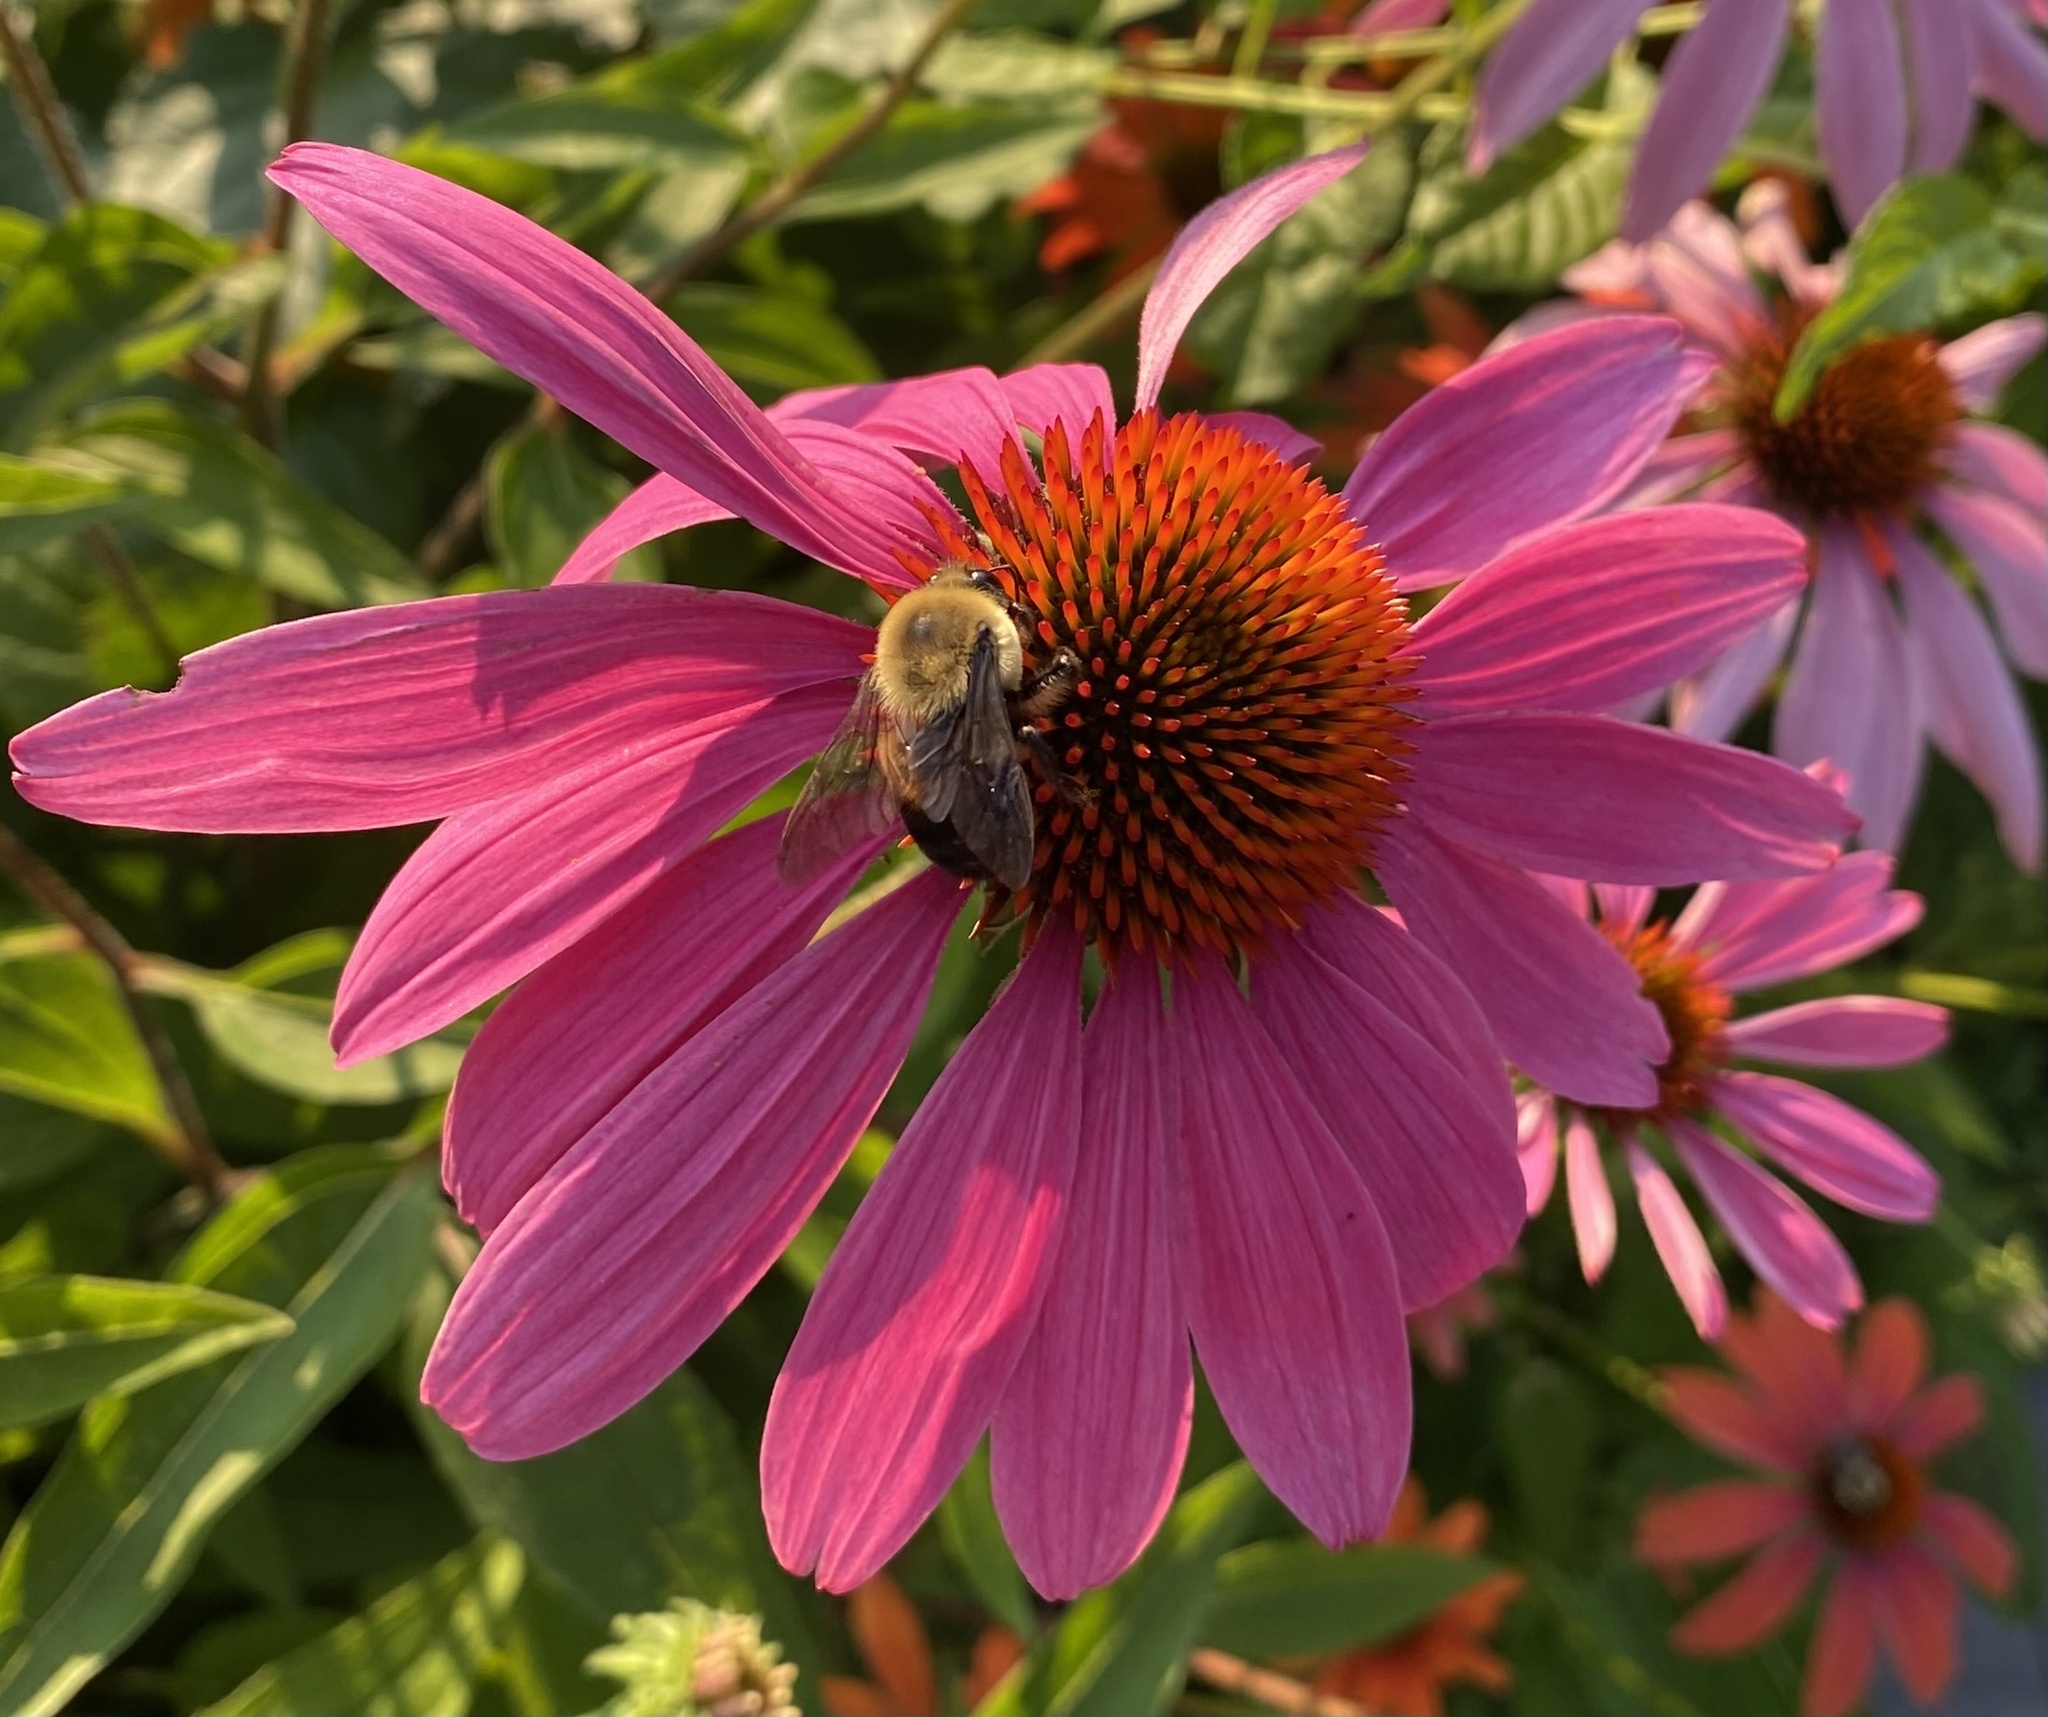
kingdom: Animalia
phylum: Arthropoda
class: Insecta
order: Hymenoptera
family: Apidae
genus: Bombus
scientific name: Bombus griseocollis
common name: Brown-belted bumble bee
